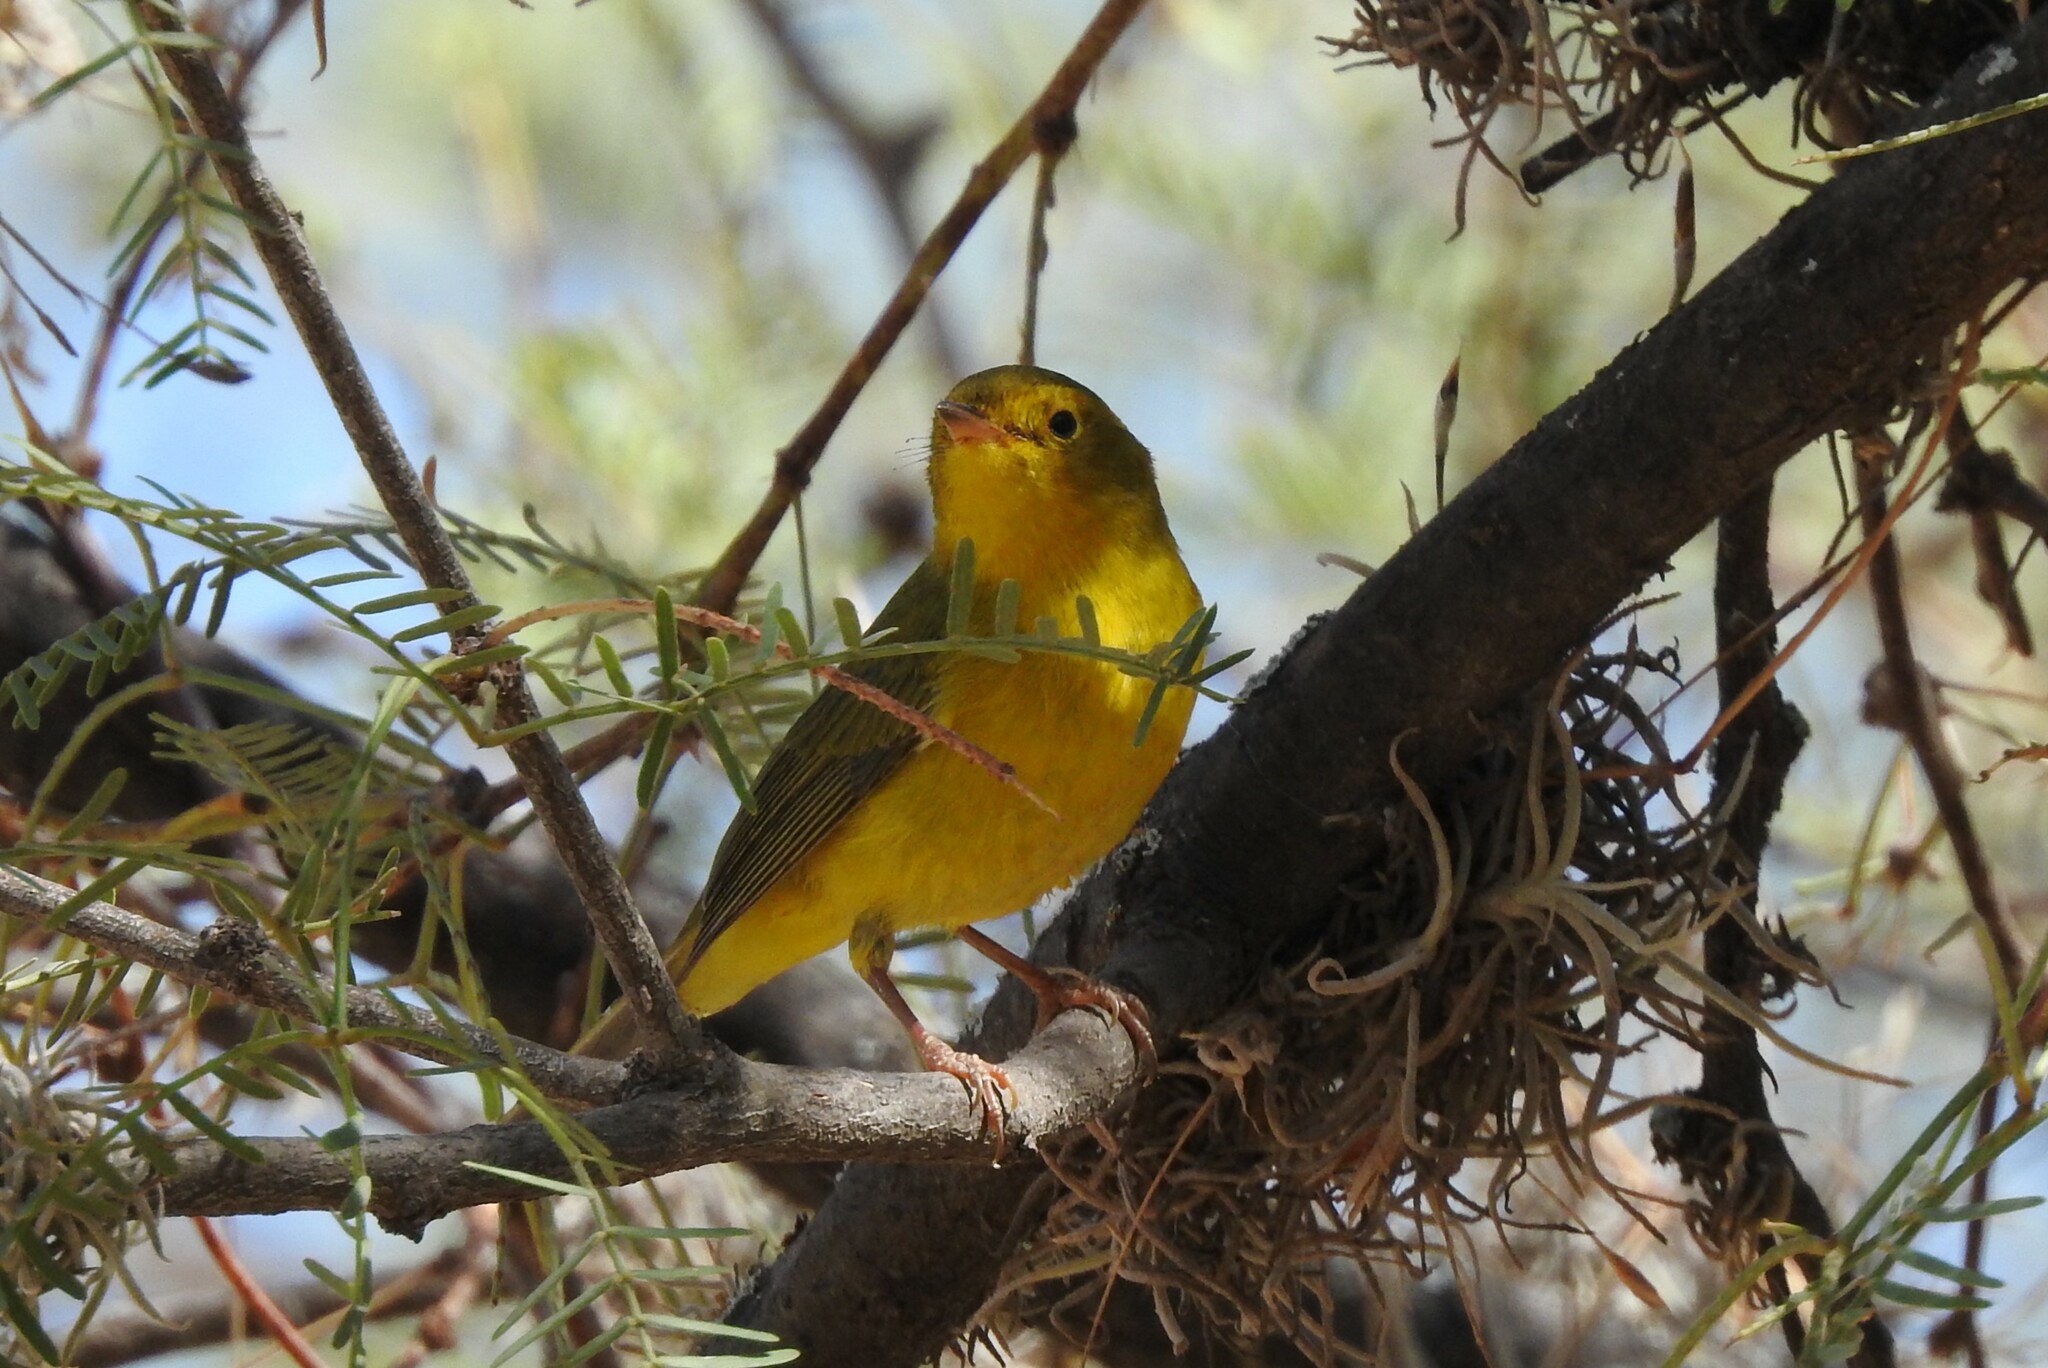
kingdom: Animalia
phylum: Chordata
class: Aves
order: Passeriformes
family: Parulidae
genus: Cardellina
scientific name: Cardellina pusilla
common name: Wilson's warbler
